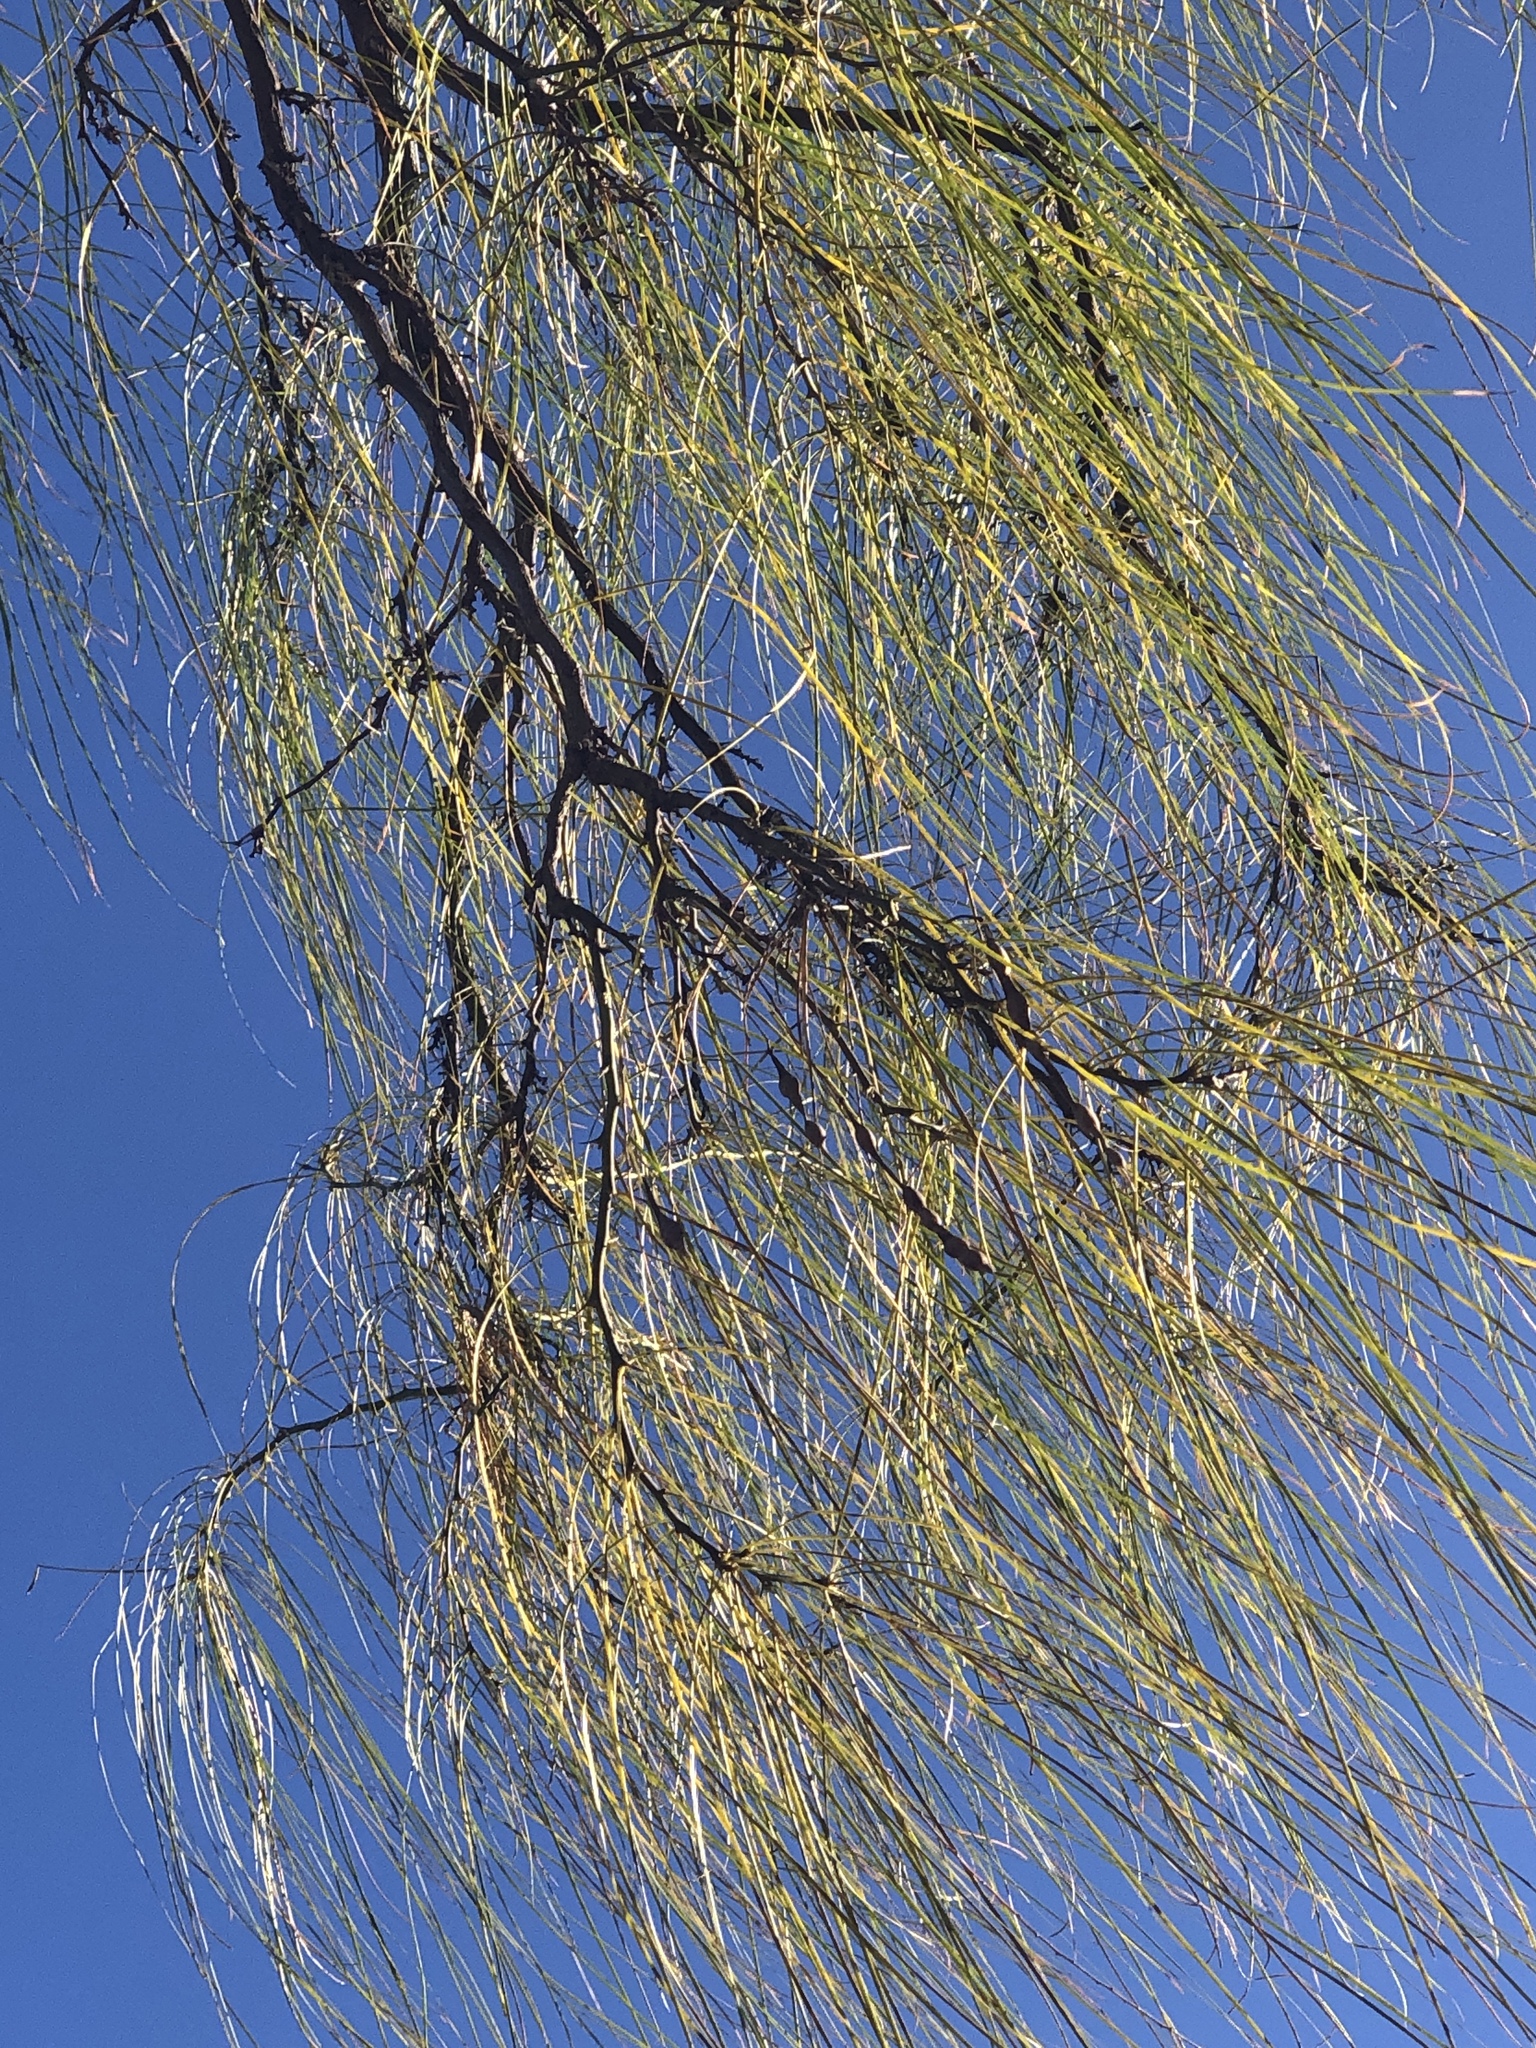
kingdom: Plantae
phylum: Tracheophyta
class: Magnoliopsida
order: Fabales
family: Fabaceae
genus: Parkinsonia
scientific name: Parkinsonia aculeata
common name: Jerusalem thorn
